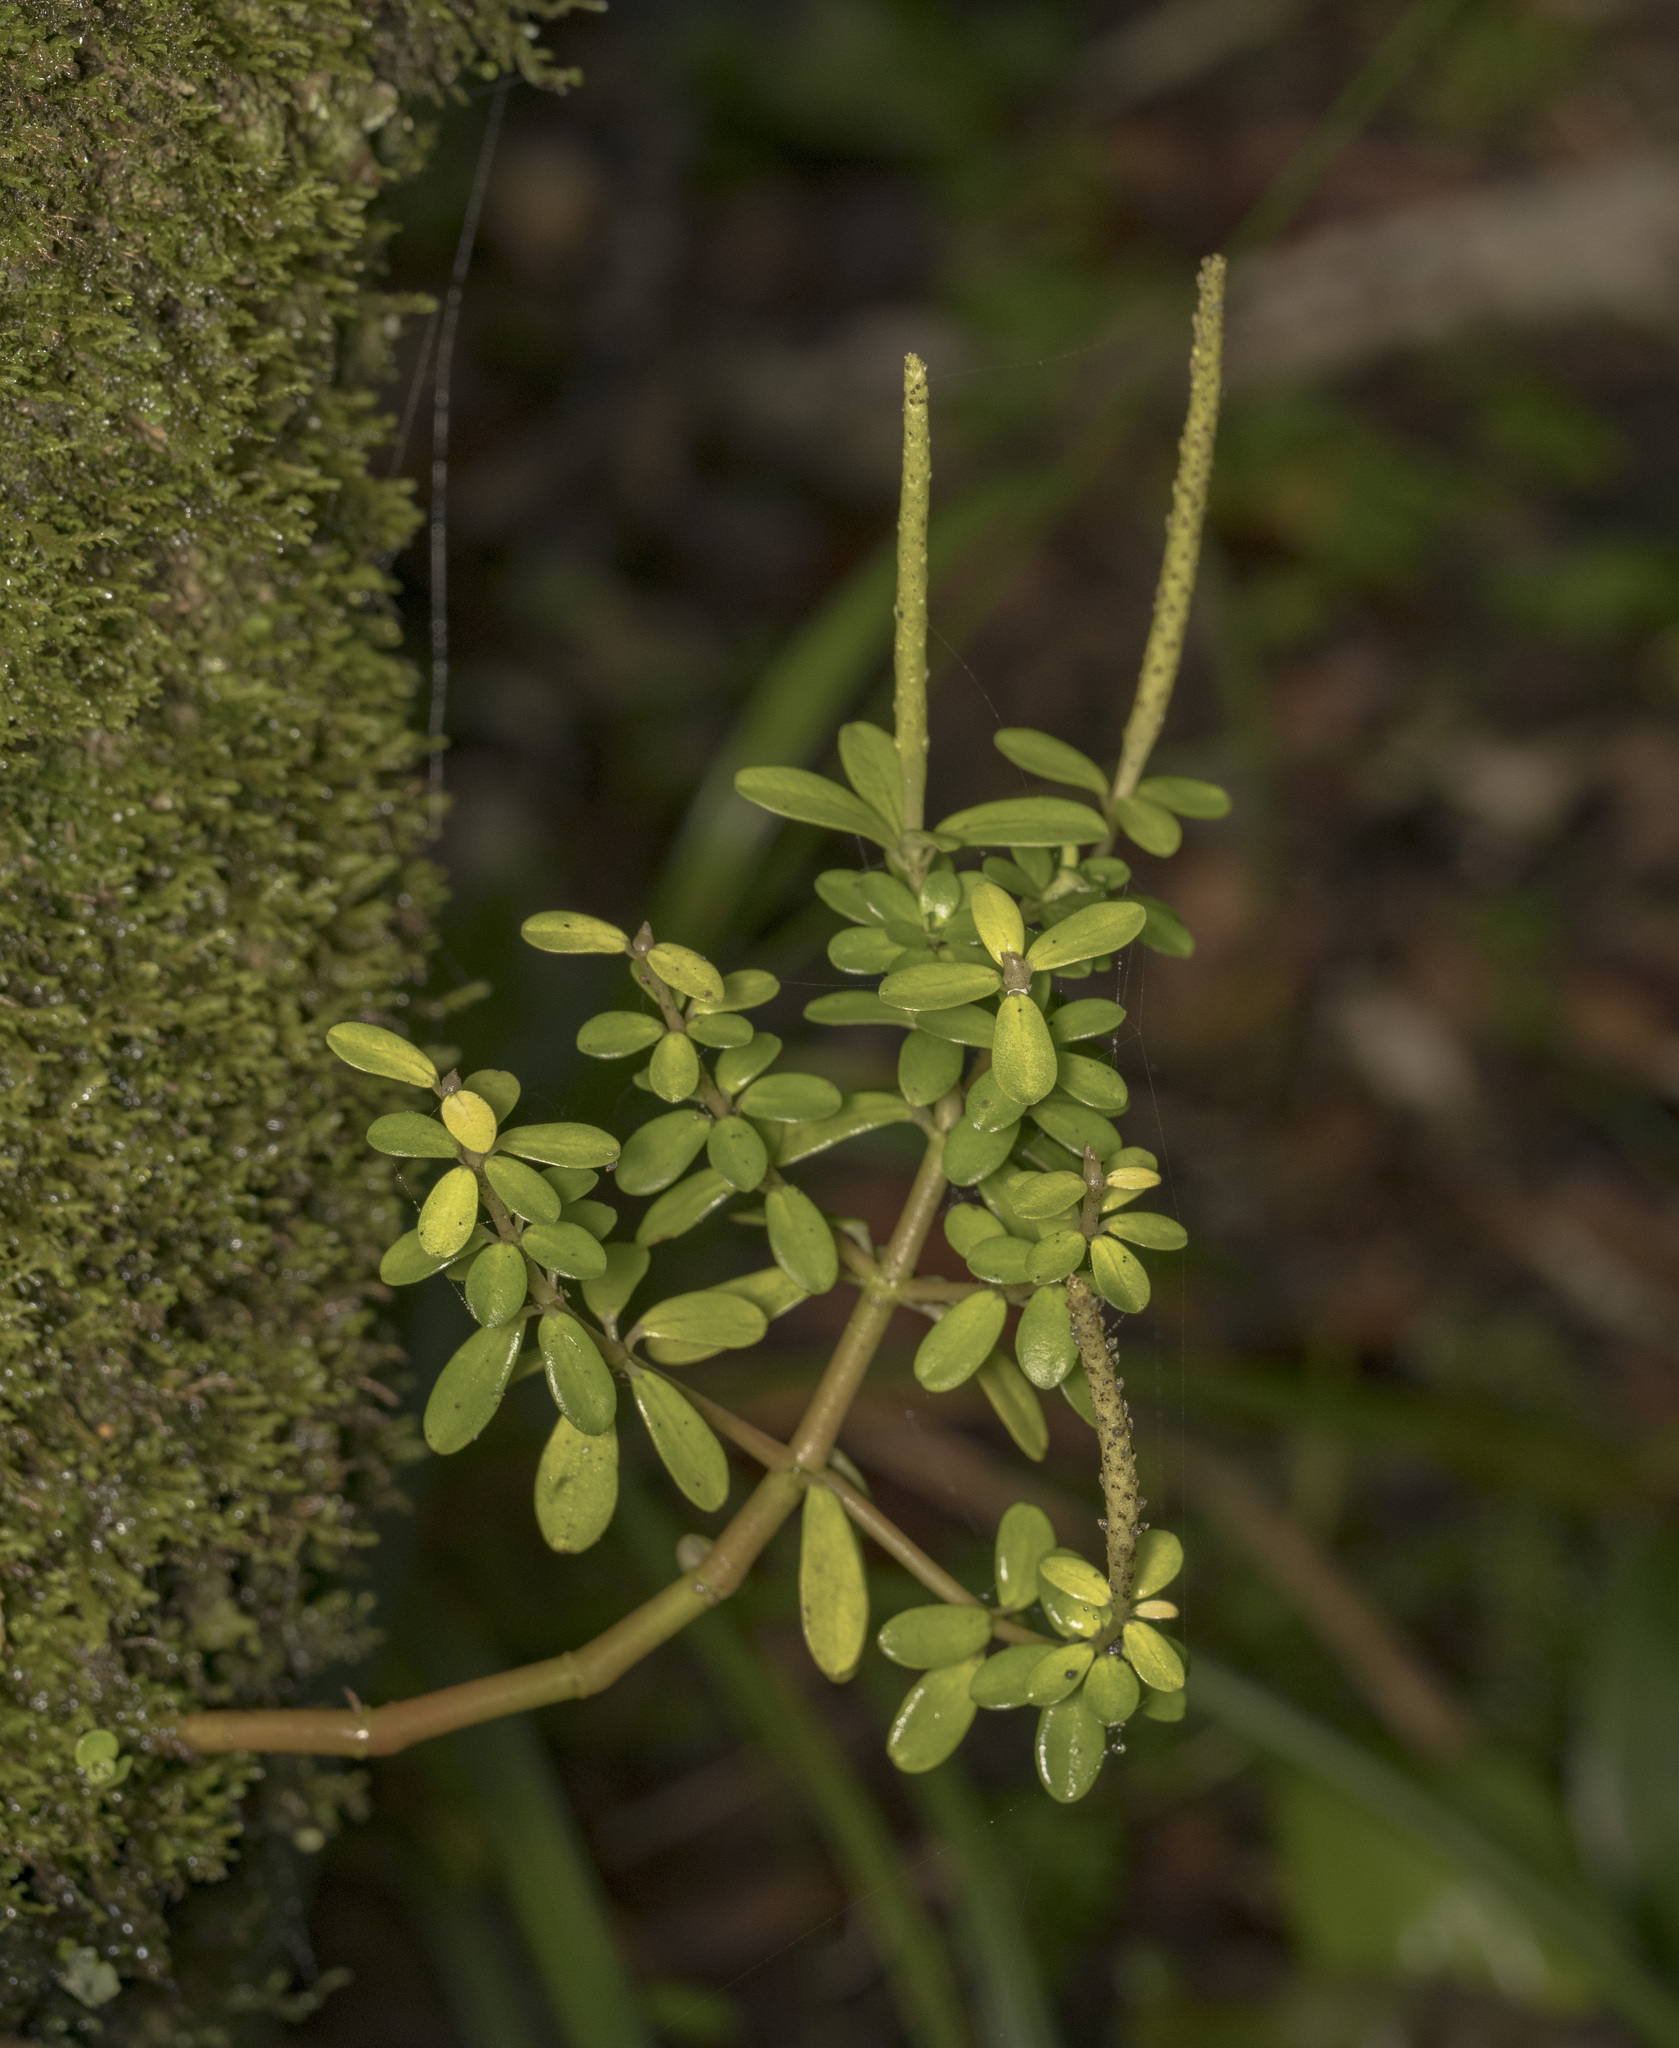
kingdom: Plantae
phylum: Tracheophyta
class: Magnoliopsida
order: Piperales
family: Piperaceae
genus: Peperomia
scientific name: Peperomia coquimbensis
